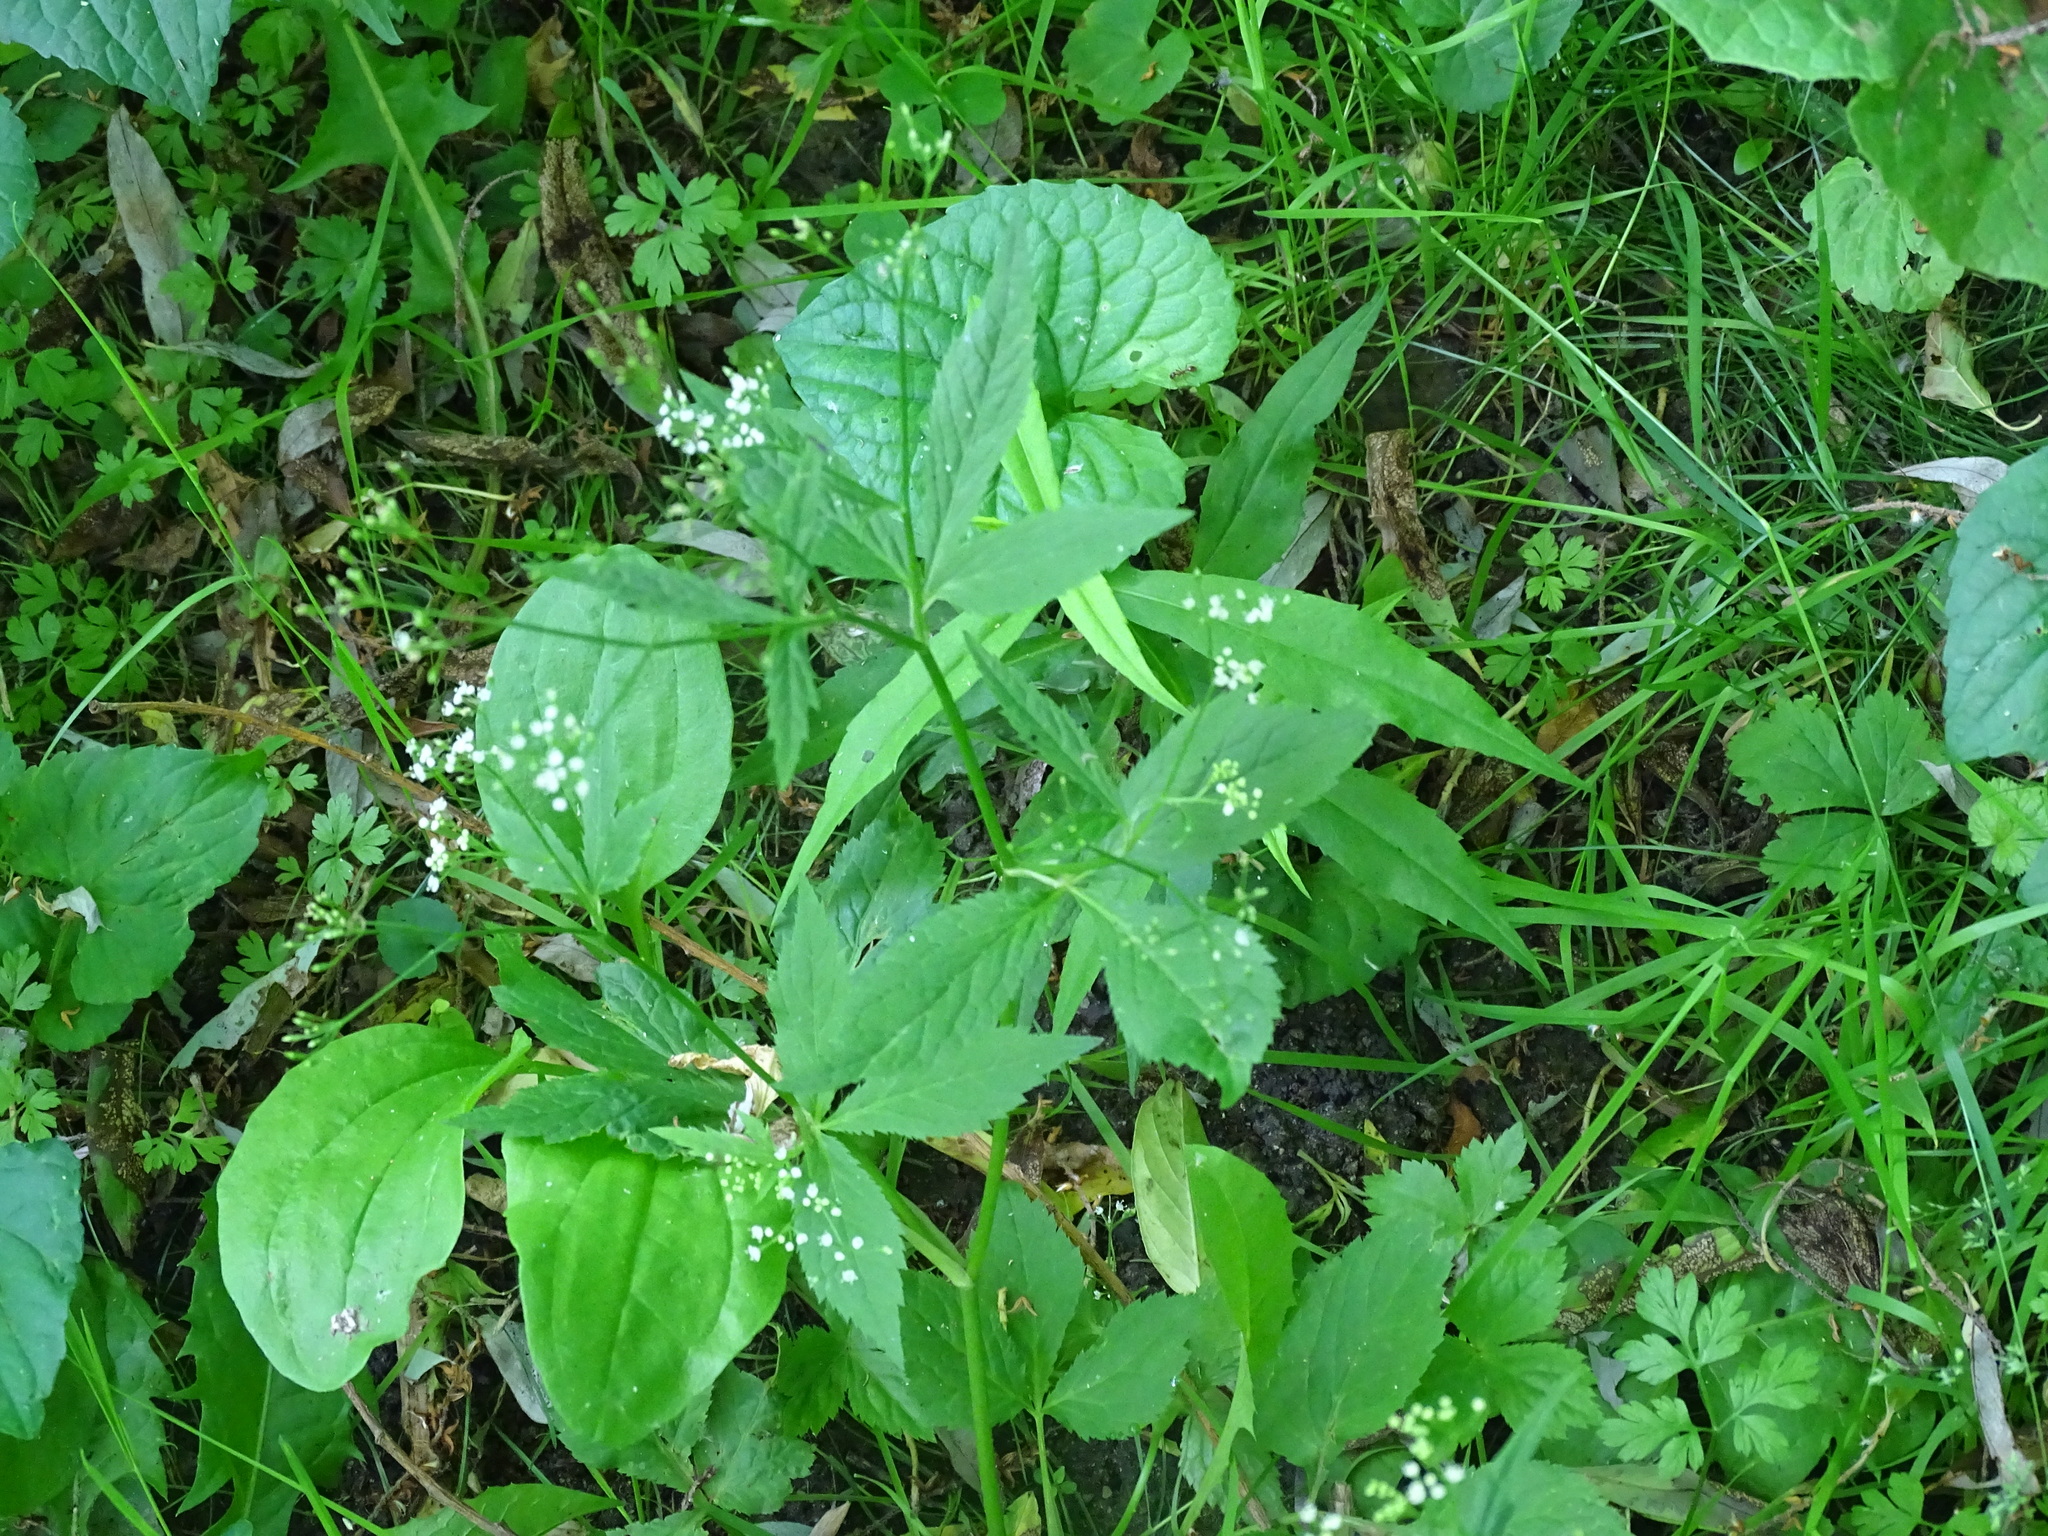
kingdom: Plantae
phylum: Tracheophyta
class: Magnoliopsida
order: Apiales
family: Apiaceae
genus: Cryptotaenia
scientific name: Cryptotaenia canadensis
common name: Honewort
